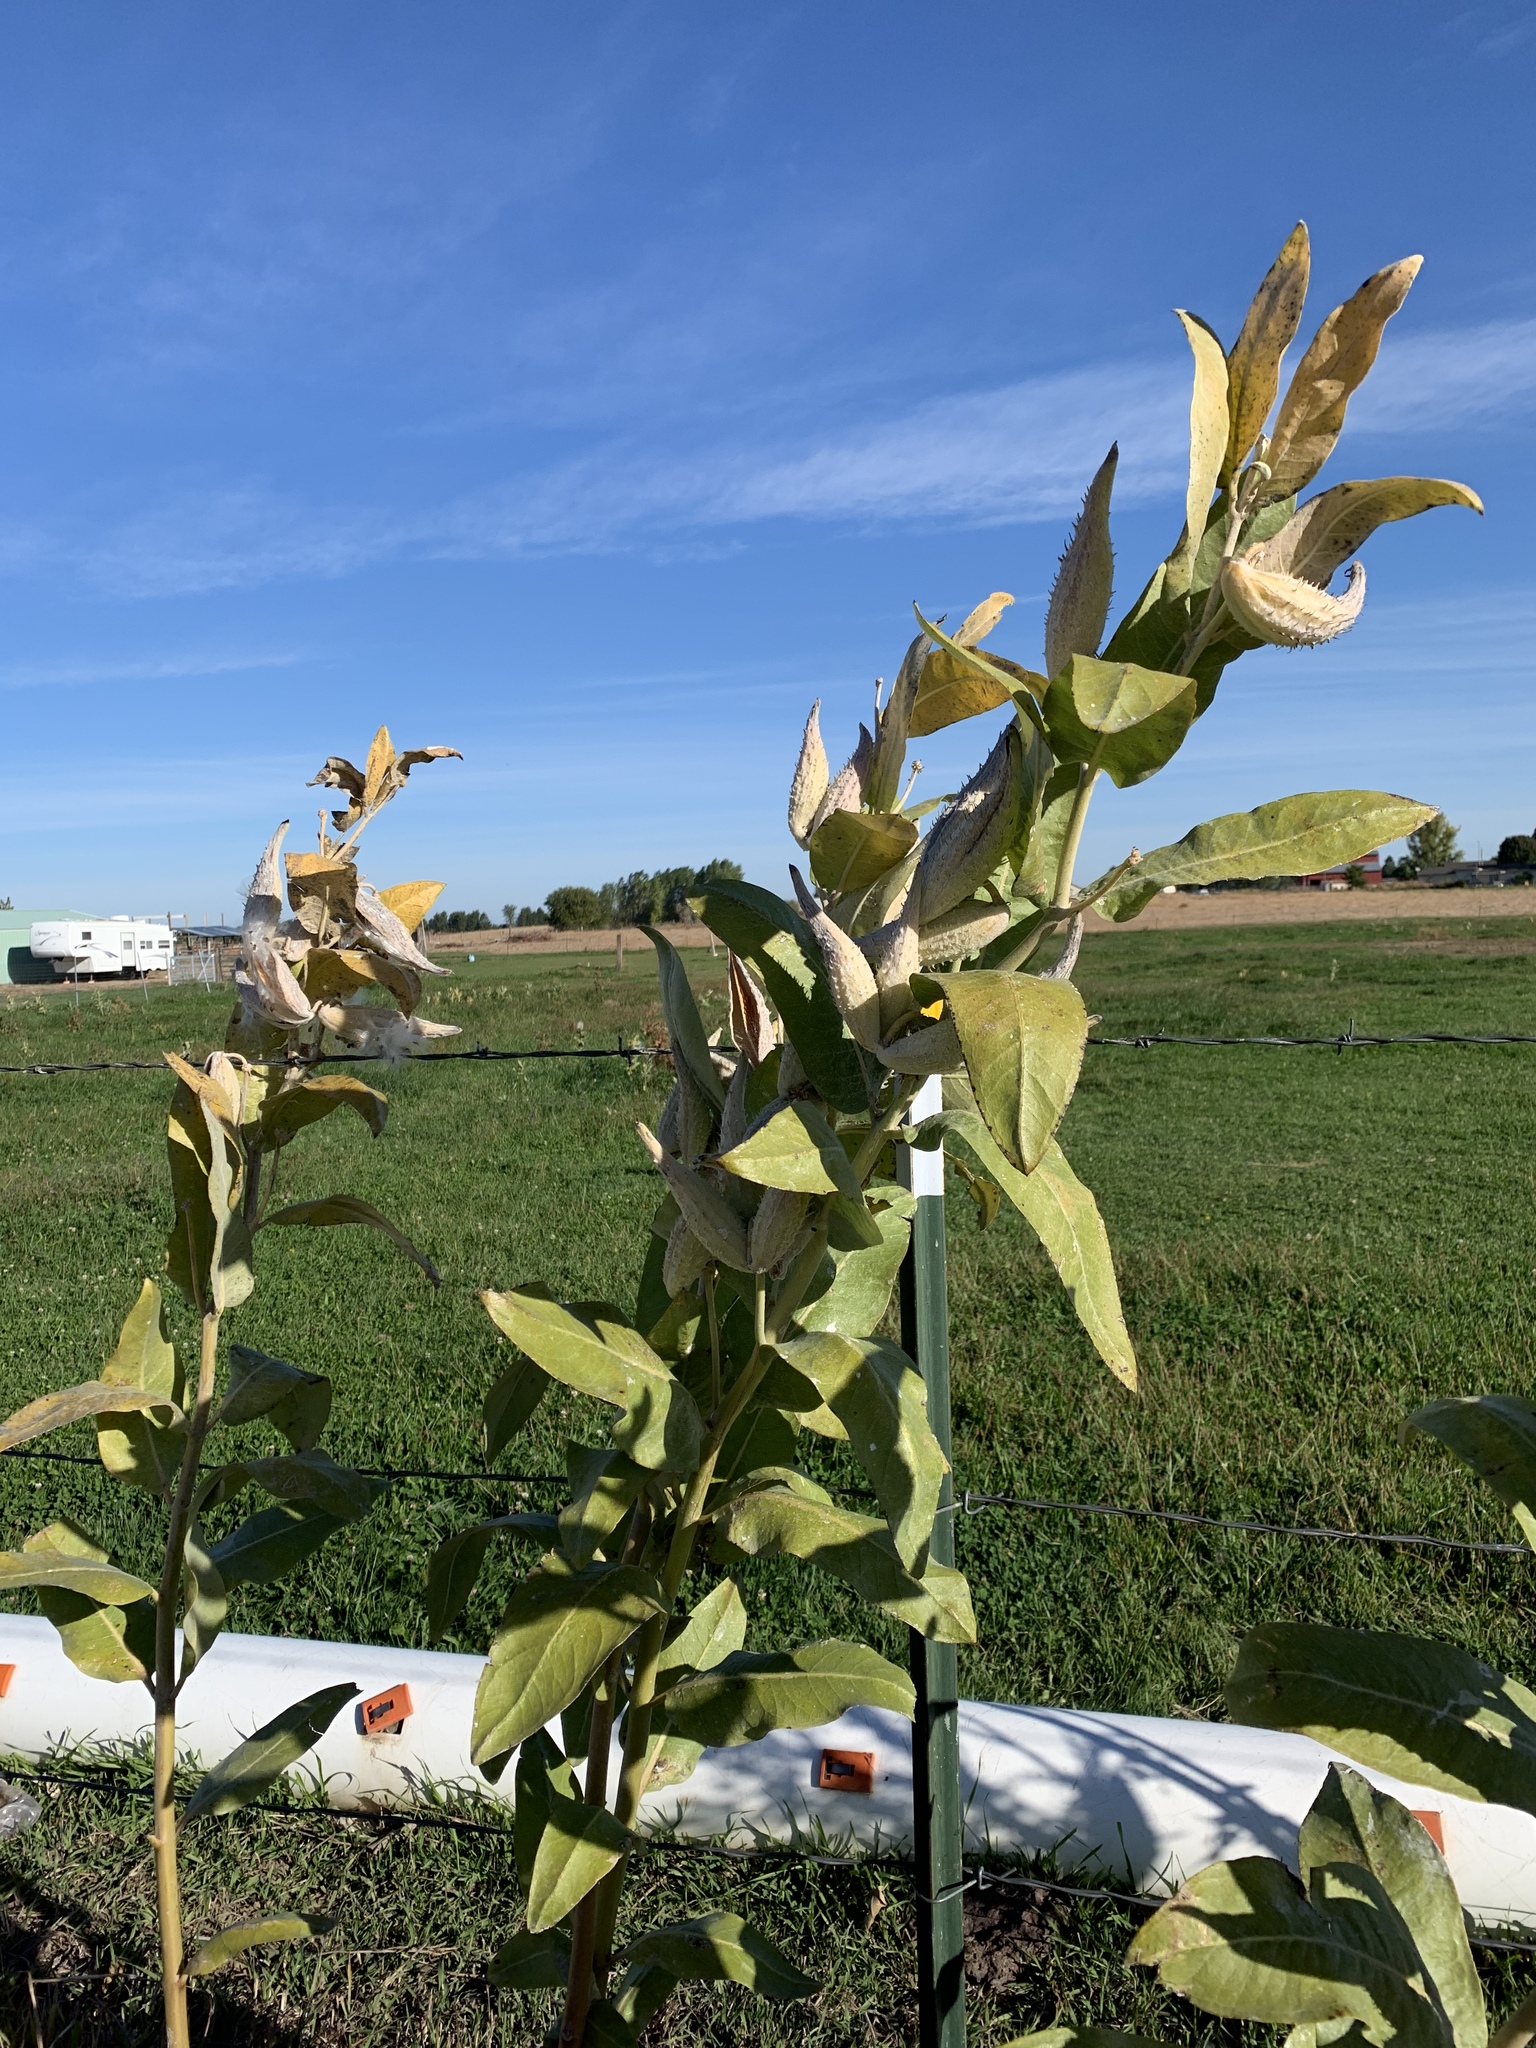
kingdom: Plantae
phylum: Tracheophyta
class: Magnoliopsida
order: Gentianales
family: Apocynaceae
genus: Asclepias
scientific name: Asclepias speciosa
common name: Showy milkweed
